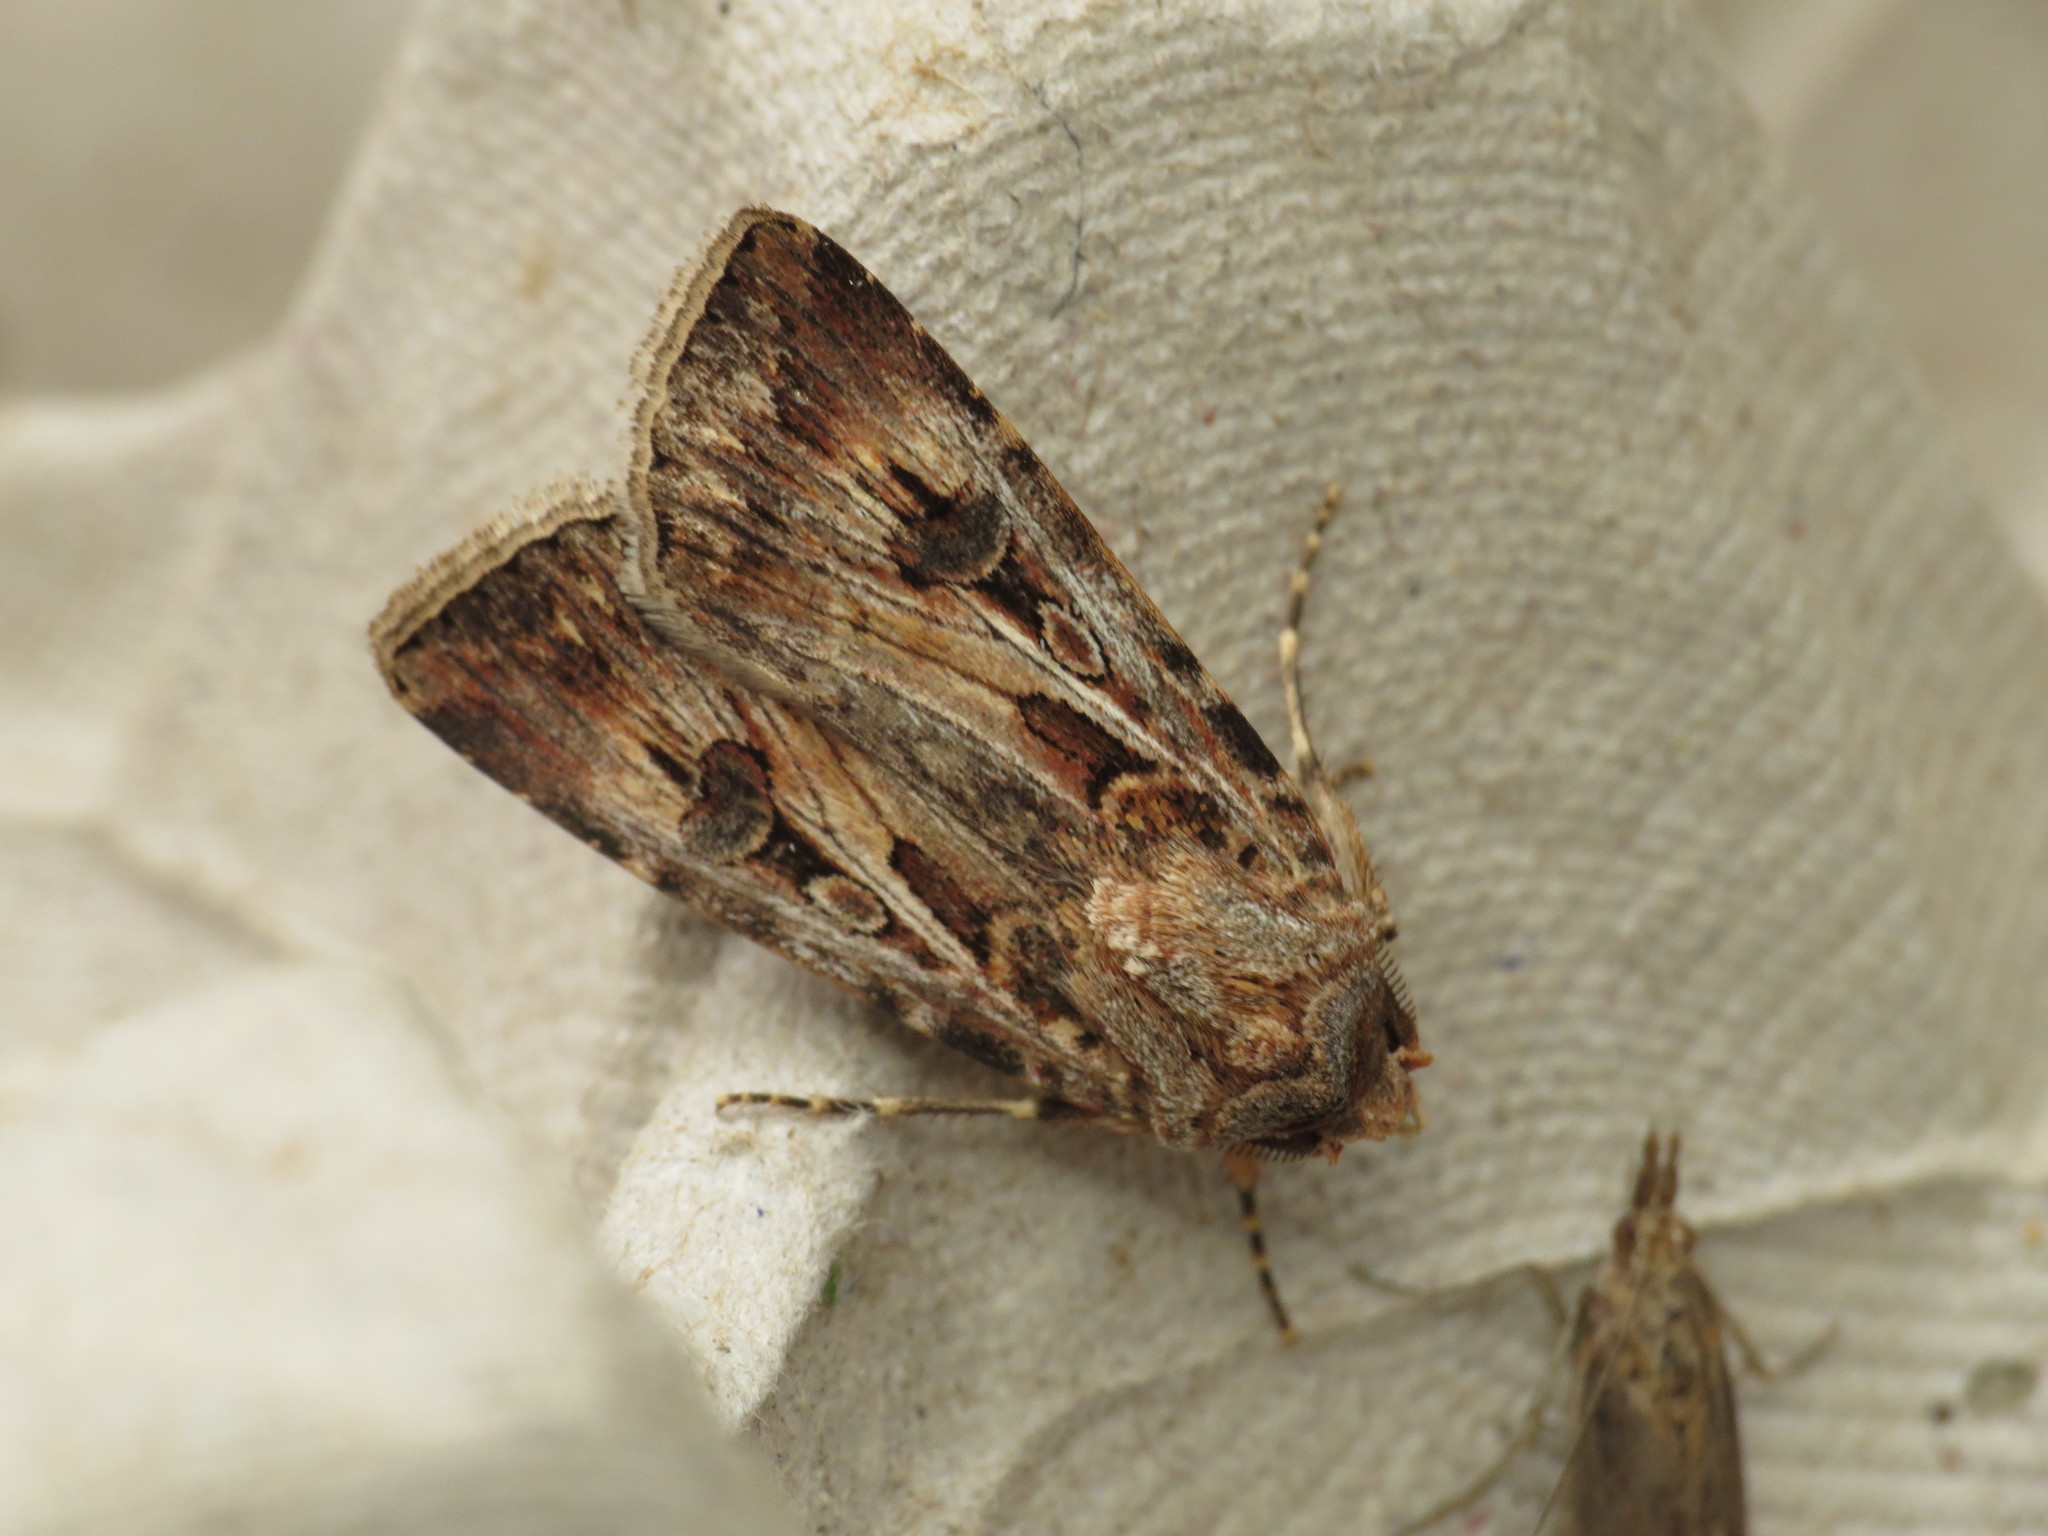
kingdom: Animalia
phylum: Arthropoda
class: Insecta
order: Lepidoptera
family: Noctuidae
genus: Agrotis
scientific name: Agrotis munda
